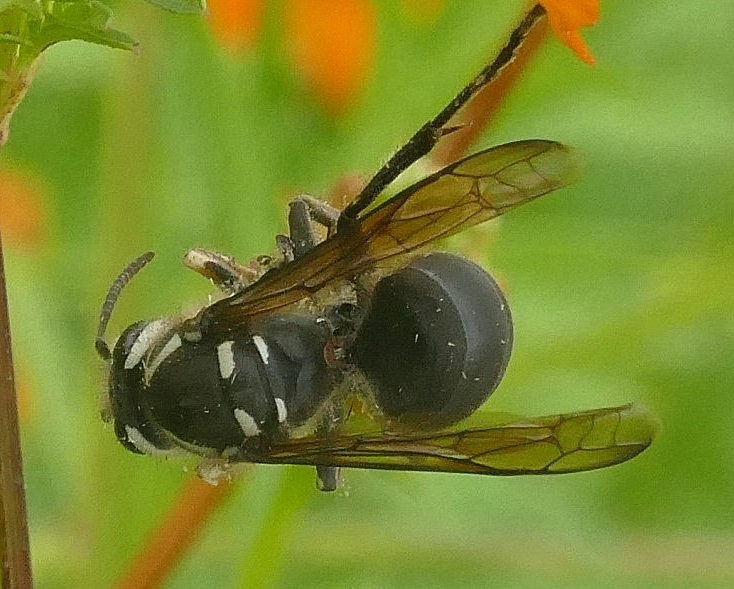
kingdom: Animalia
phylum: Arthropoda
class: Insecta
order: Hymenoptera
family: Vespidae
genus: Dolichovespula
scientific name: Dolichovespula maculata
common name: Bald-faced hornet
